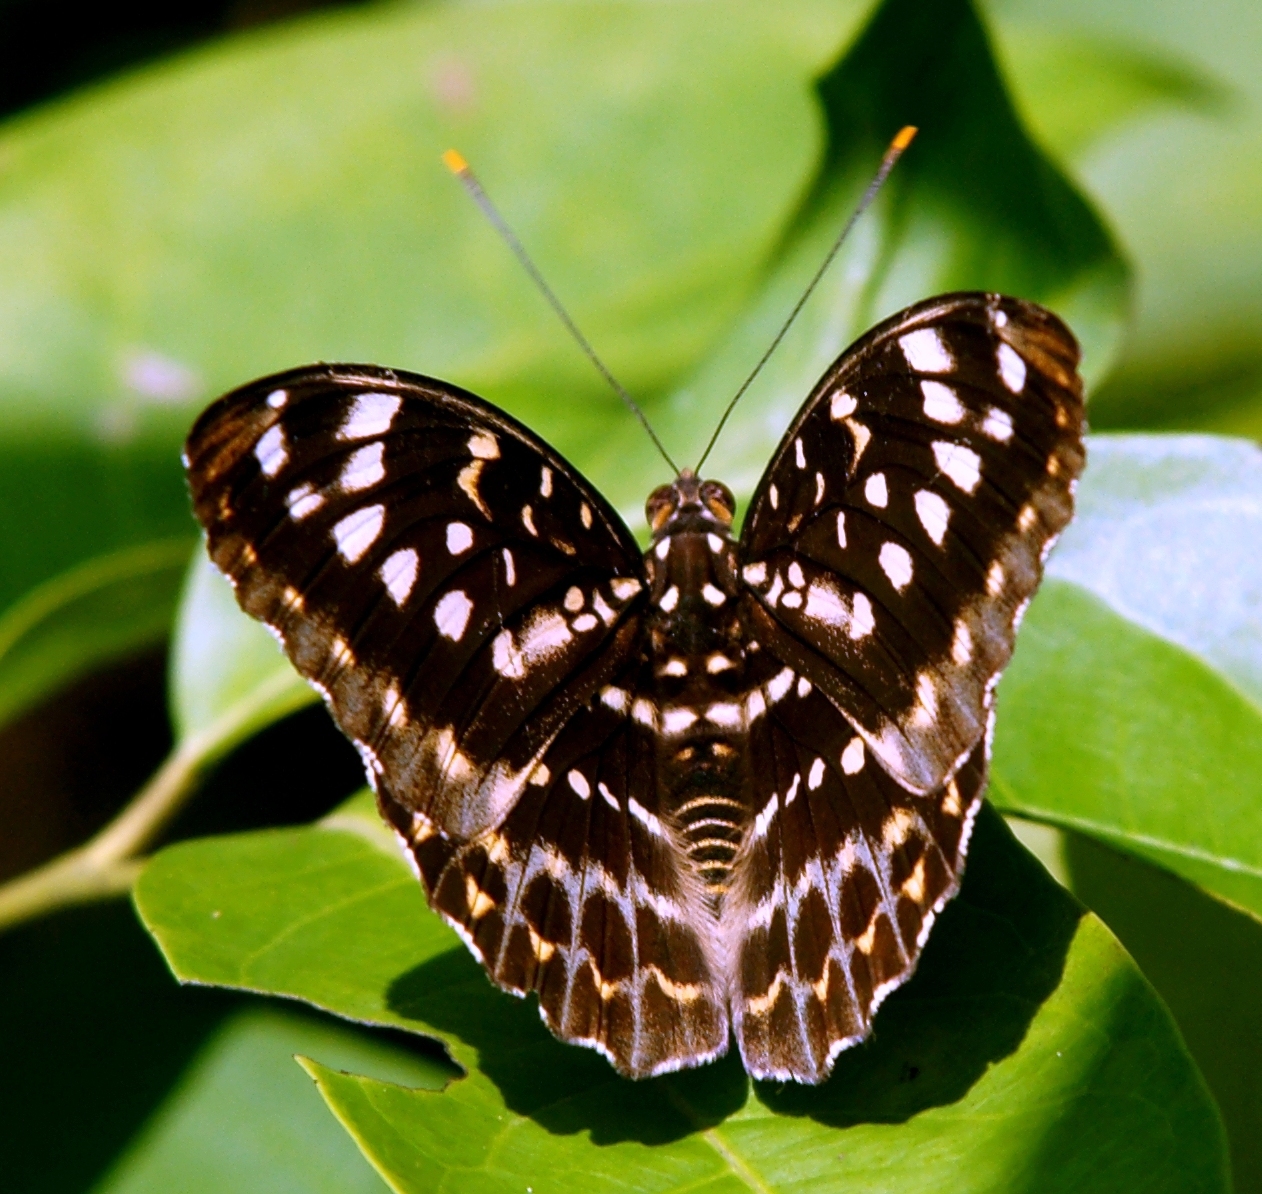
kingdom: Animalia
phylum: Arthropoda
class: Insecta
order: Lepidoptera
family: Nymphalidae
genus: Lexias
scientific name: Lexias pardalis
